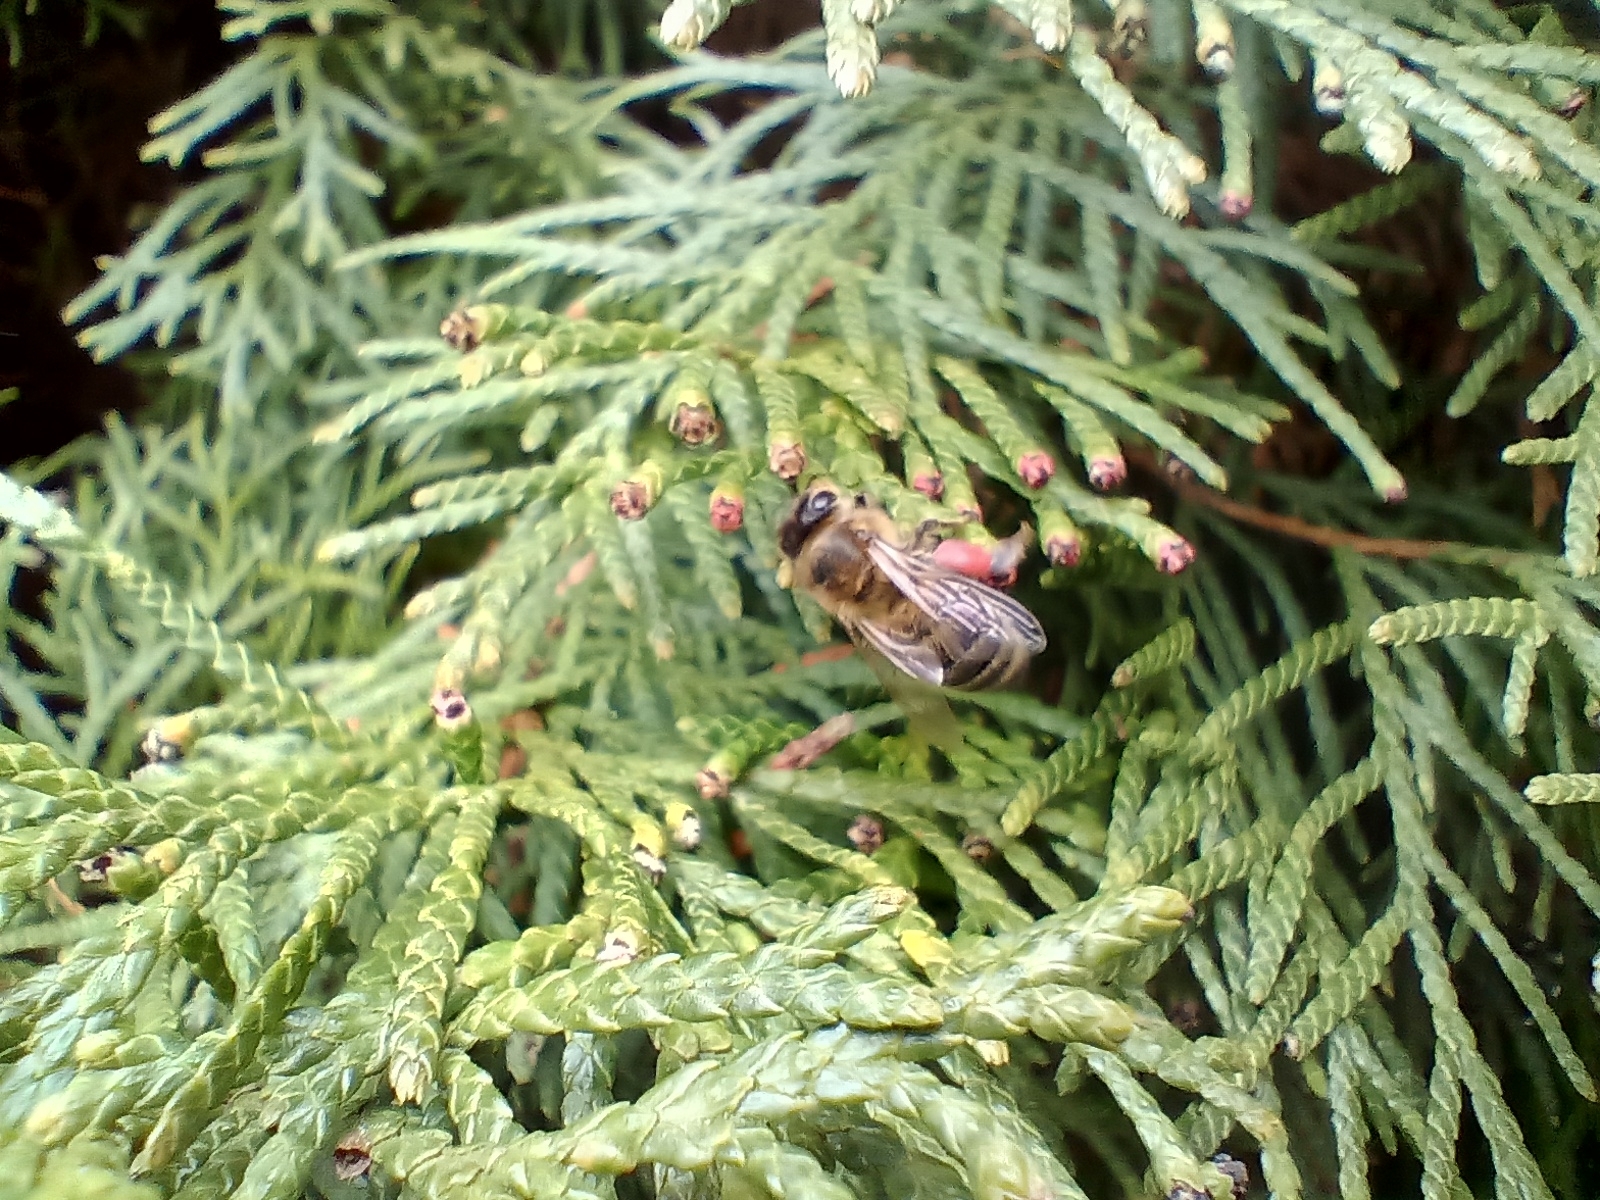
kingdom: Animalia
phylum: Arthropoda
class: Insecta
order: Hymenoptera
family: Apidae
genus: Apis
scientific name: Apis mellifera
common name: Honey bee
